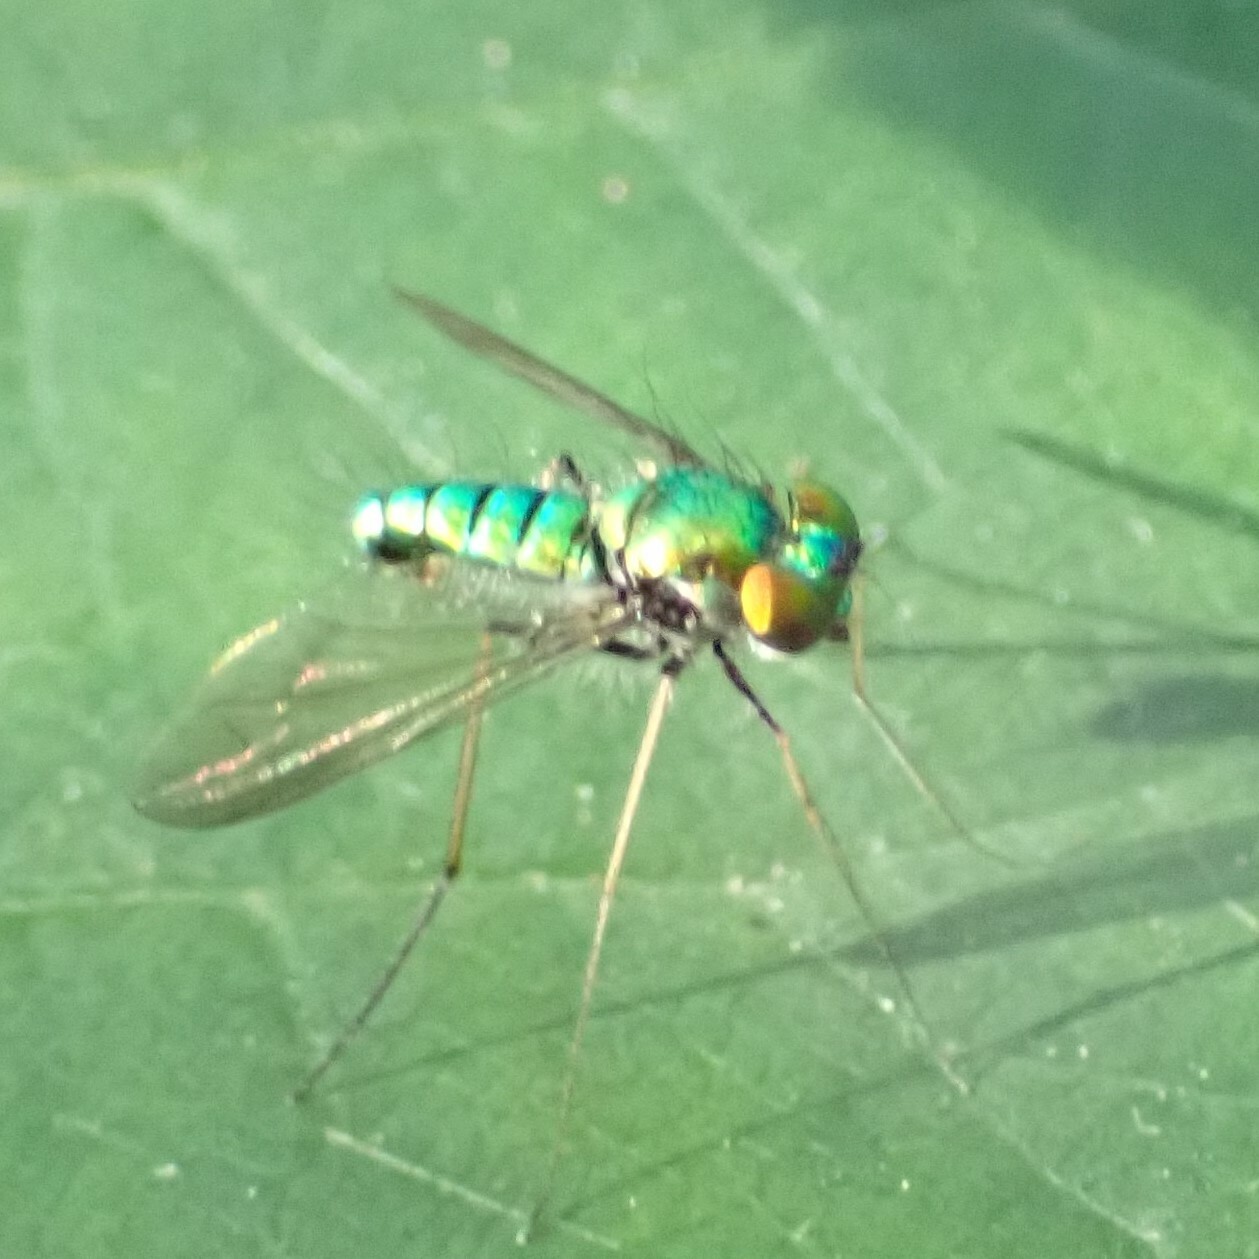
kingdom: Animalia
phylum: Arthropoda
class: Insecta
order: Diptera
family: Dolichopodidae
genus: Condylostylus
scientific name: Condylostylus comatus
